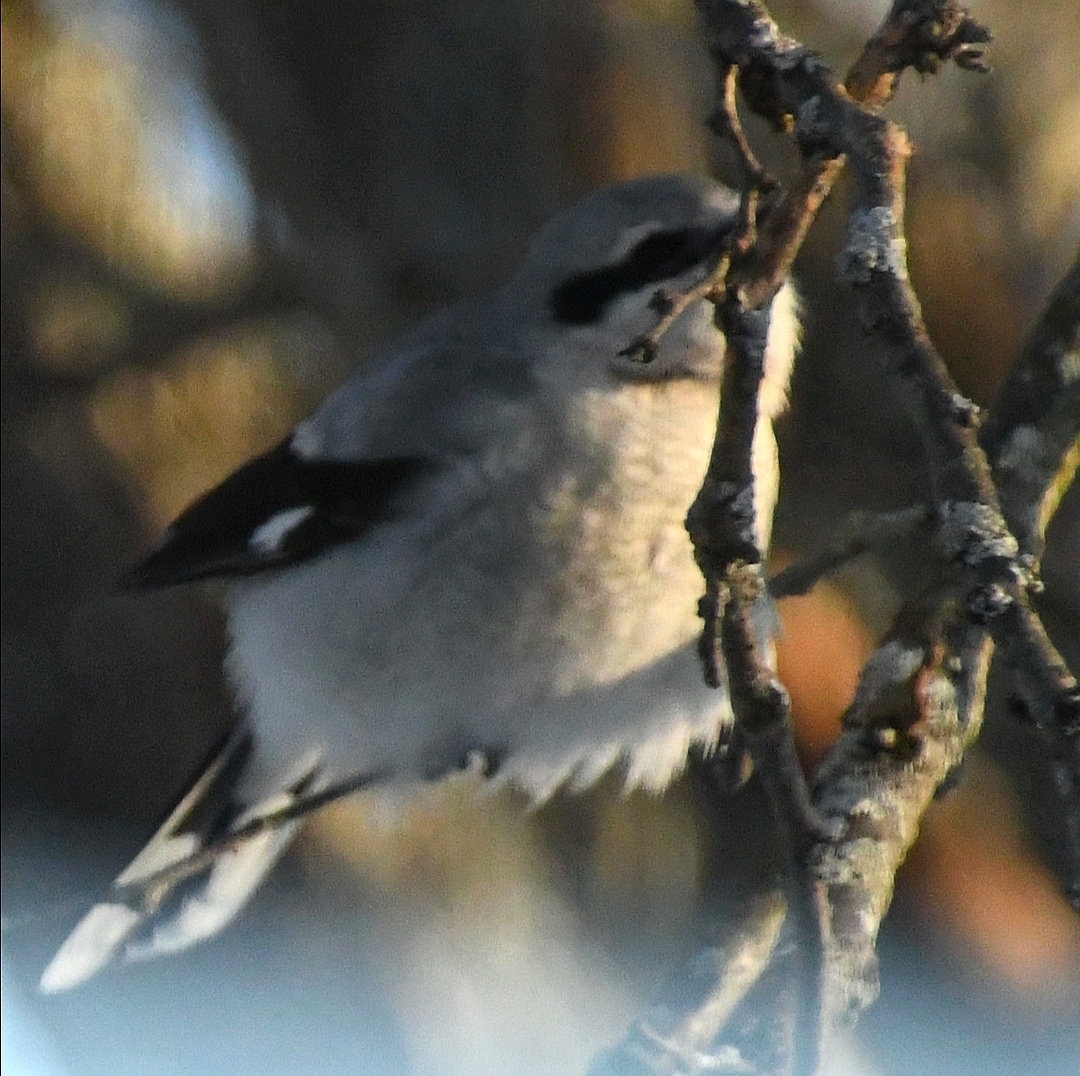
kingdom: Animalia
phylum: Chordata
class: Aves
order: Passeriformes
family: Laniidae
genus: Lanius
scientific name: Lanius borealis
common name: Northern shrike
